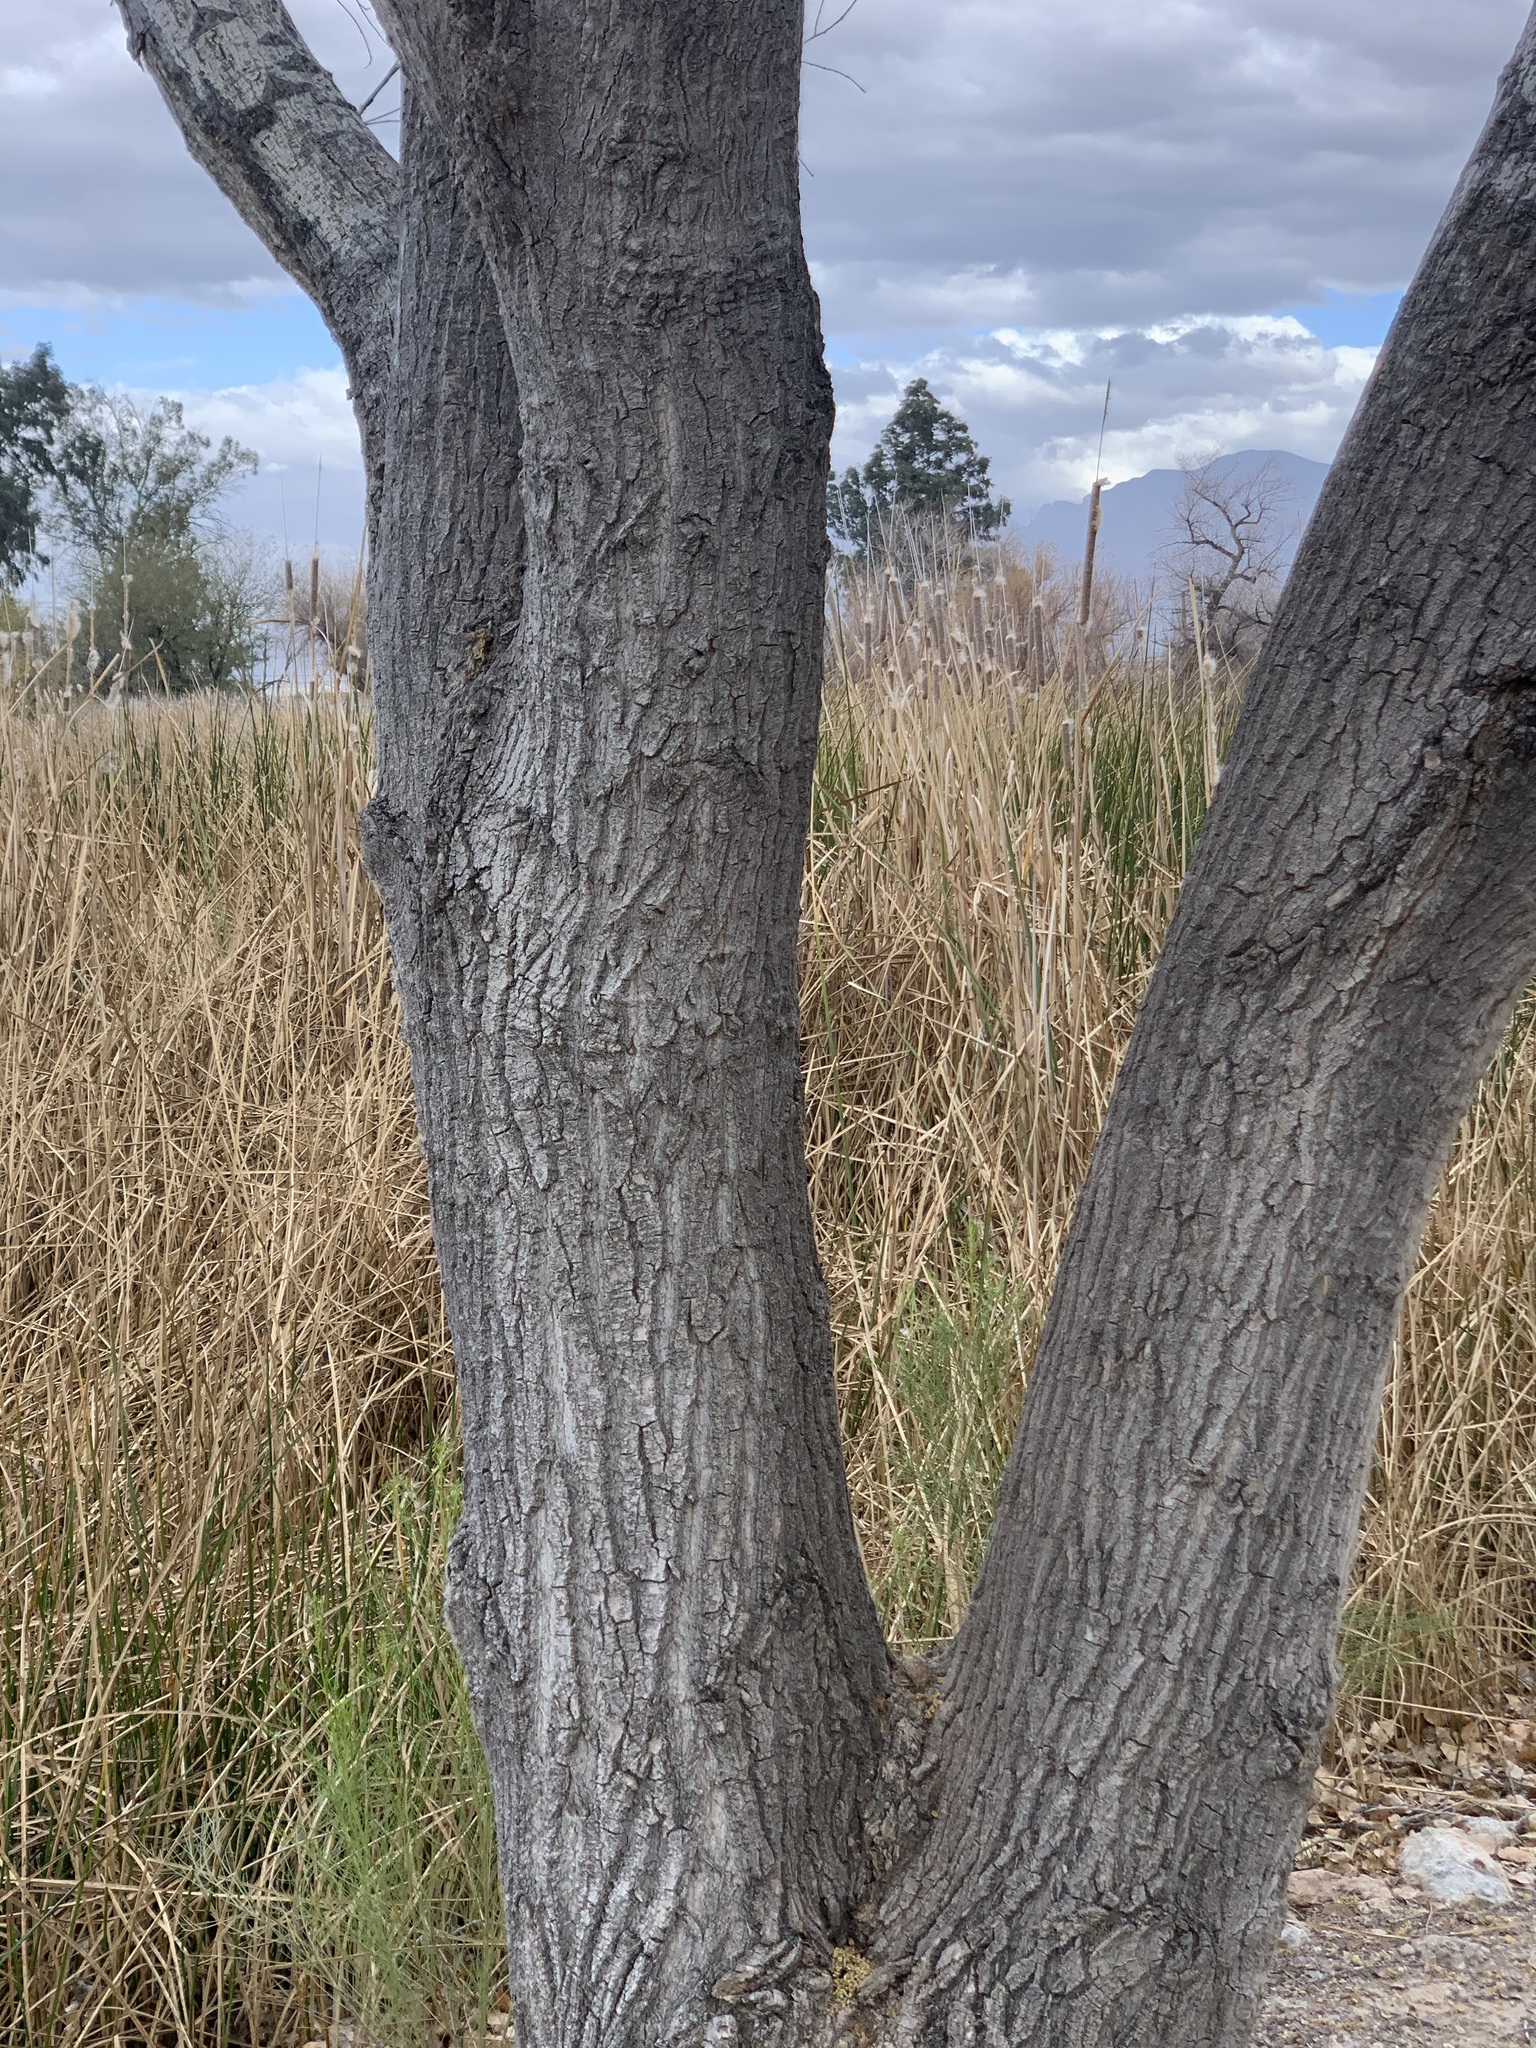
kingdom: Plantae
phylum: Tracheophyta
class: Magnoliopsida
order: Malpighiales
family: Salicaceae
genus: Populus
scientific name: Populus fremontii
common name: Fremont's cottonwood
